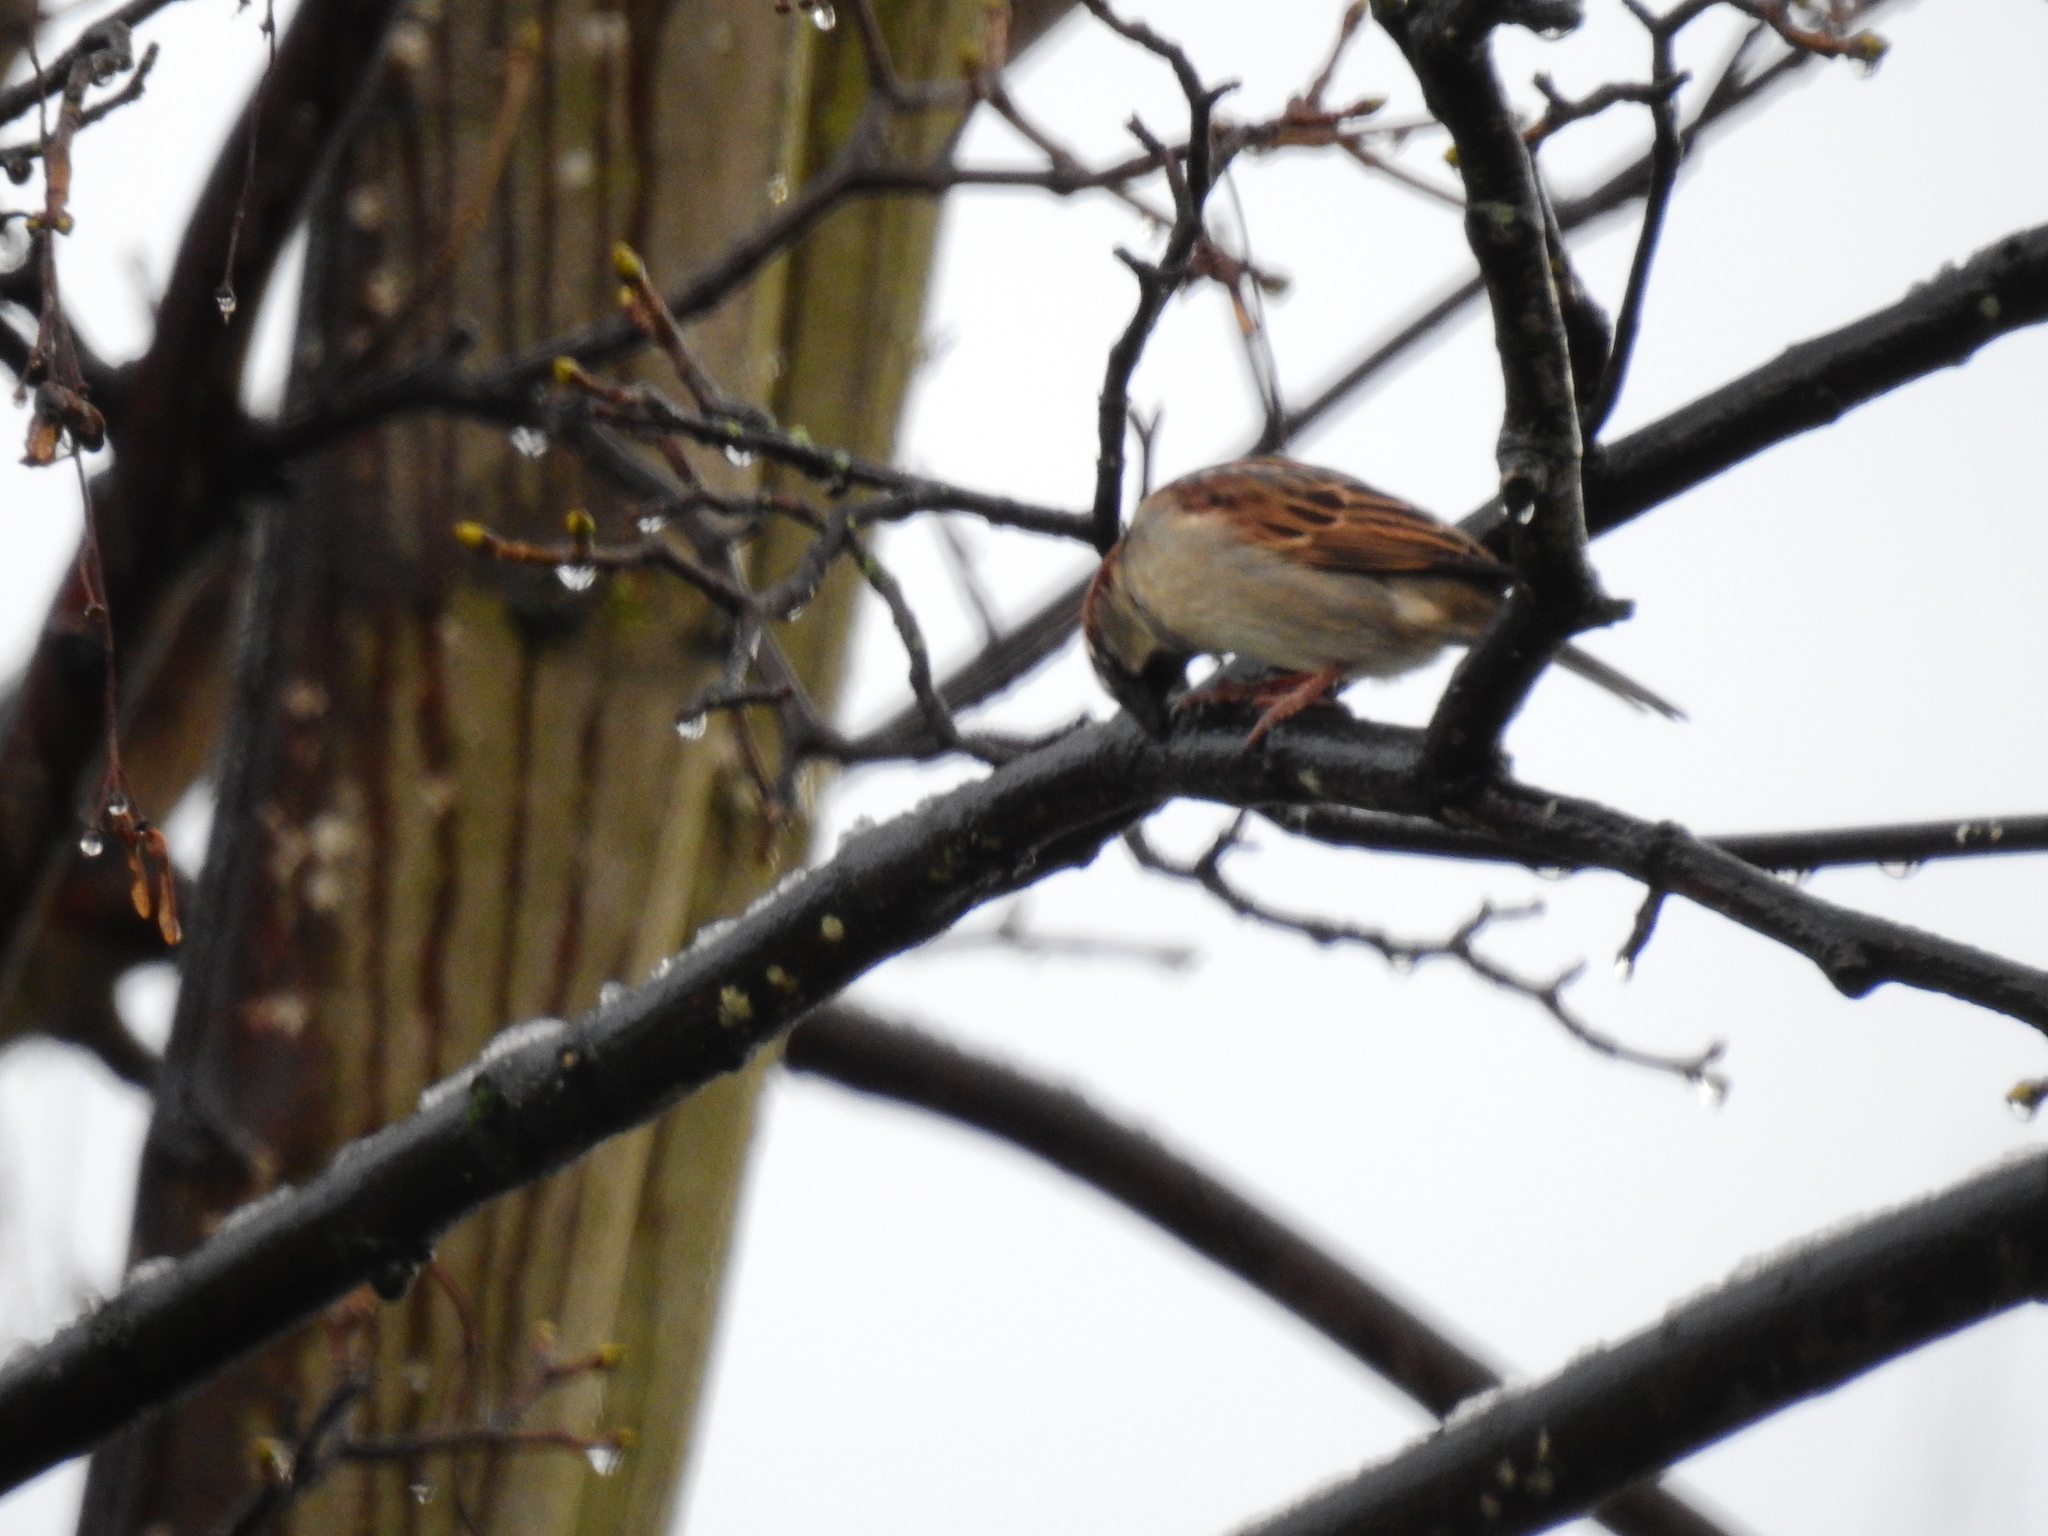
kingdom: Animalia
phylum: Chordata
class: Aves
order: Passeriformes
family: Passeridae
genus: Passer
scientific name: Passer domesticus
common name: House sparrow
